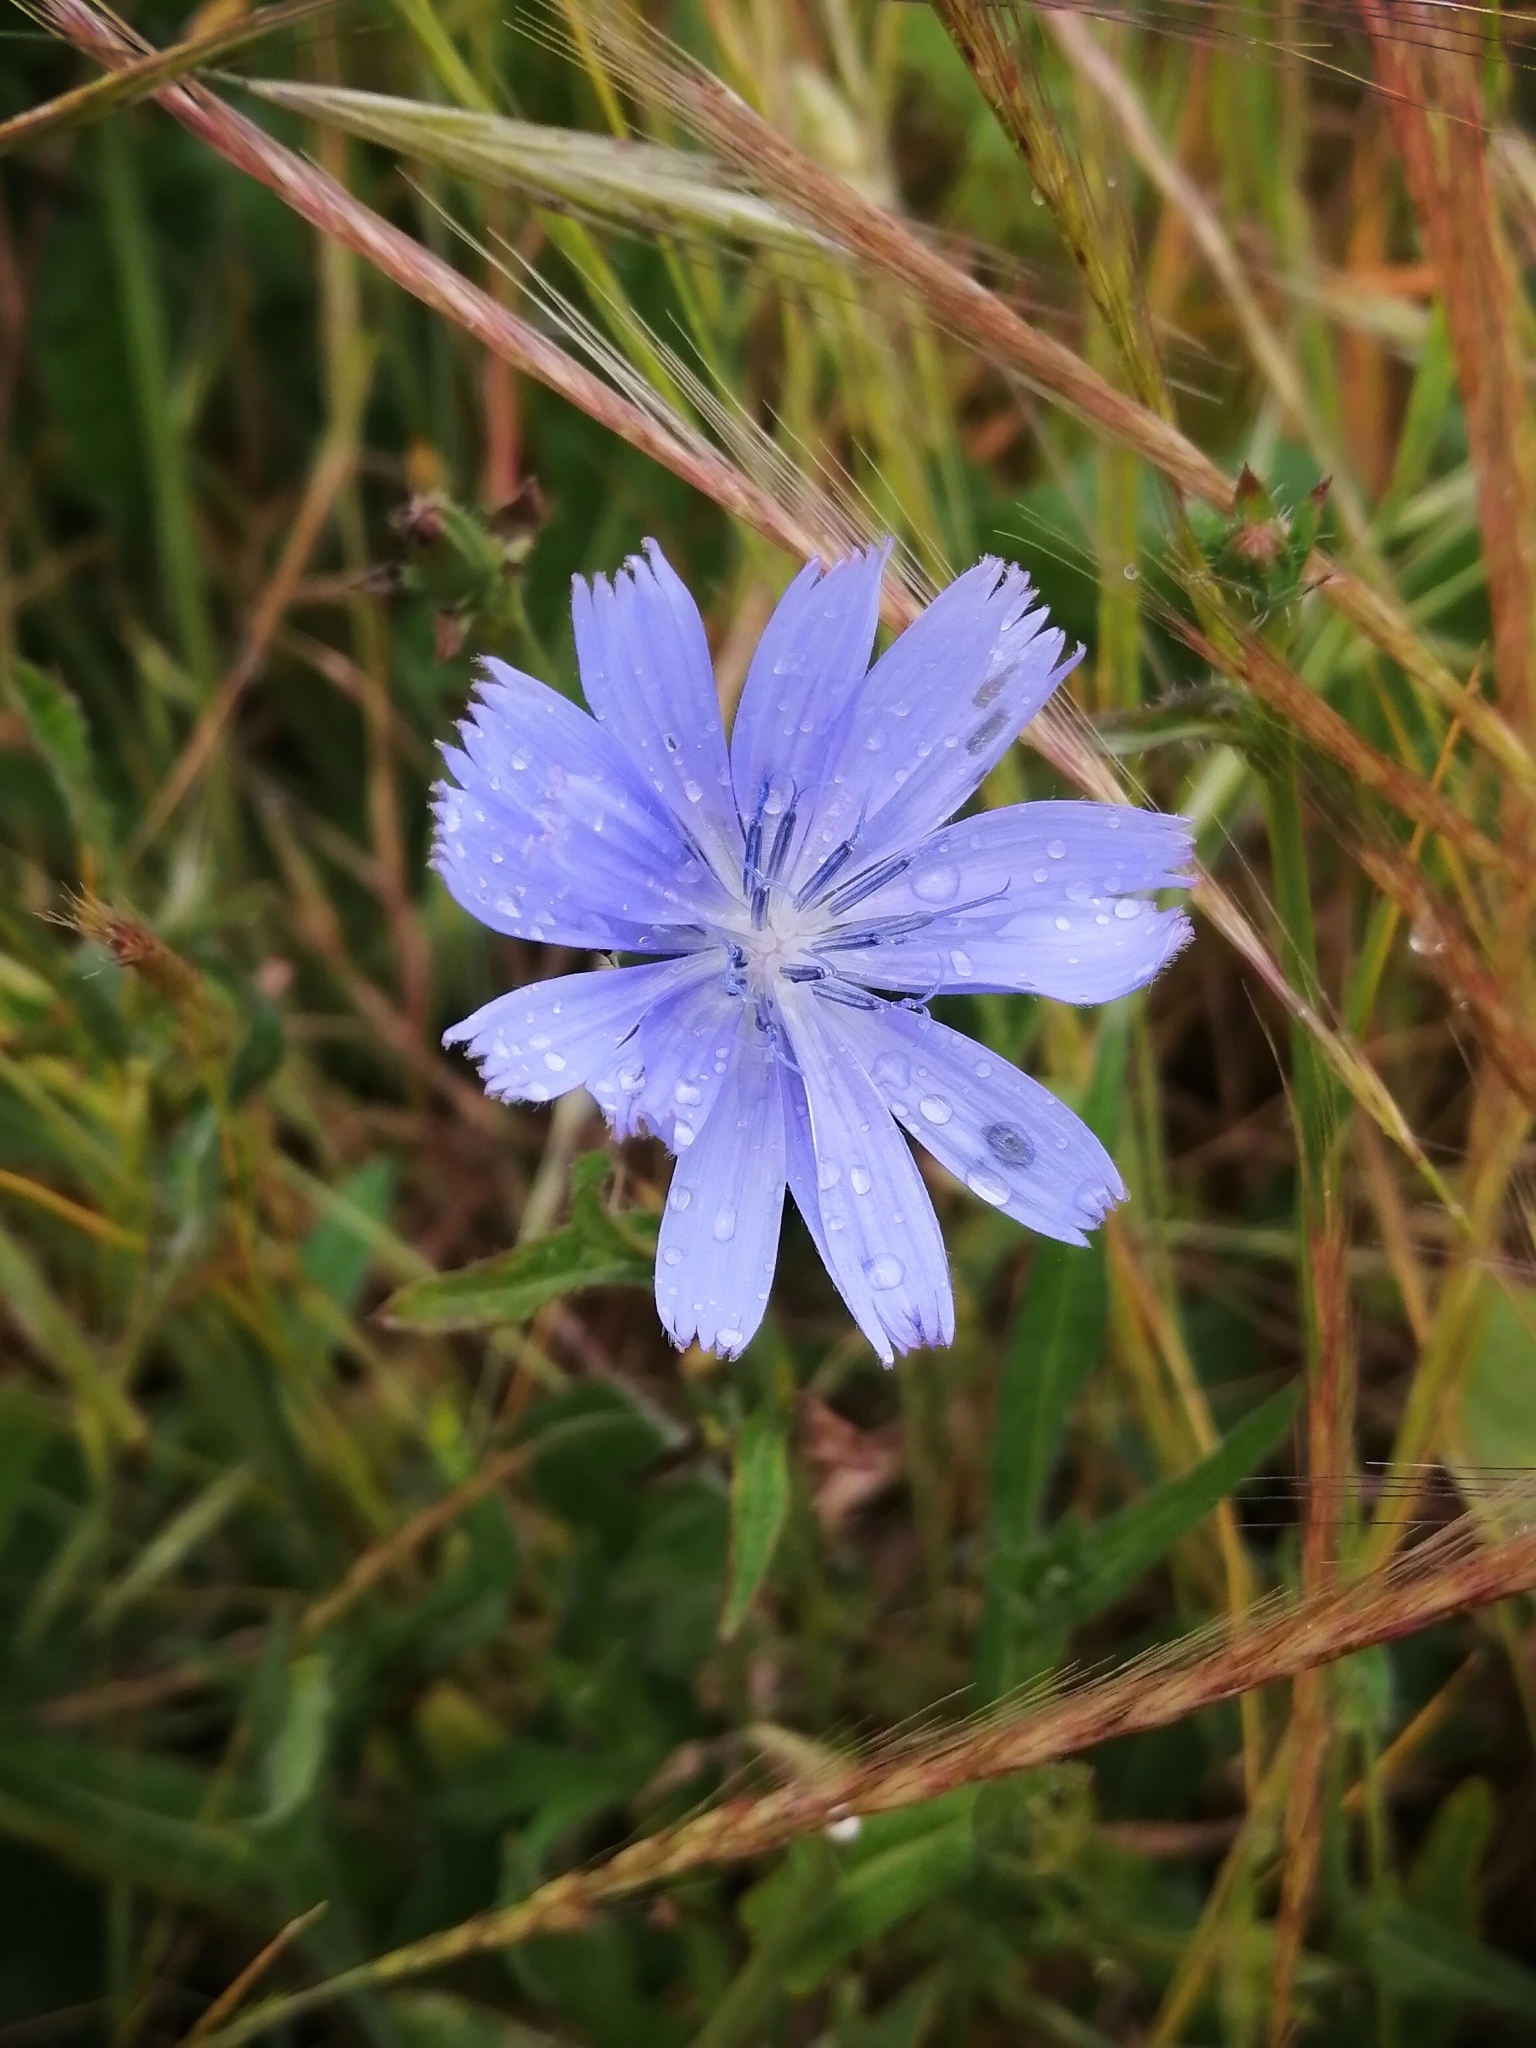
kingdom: Plantae
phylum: Tracheophyta
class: Magnoliopsida
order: Asterales
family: Asteraceae
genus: Cichorium
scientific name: Cichorium intybus
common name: Chicory
